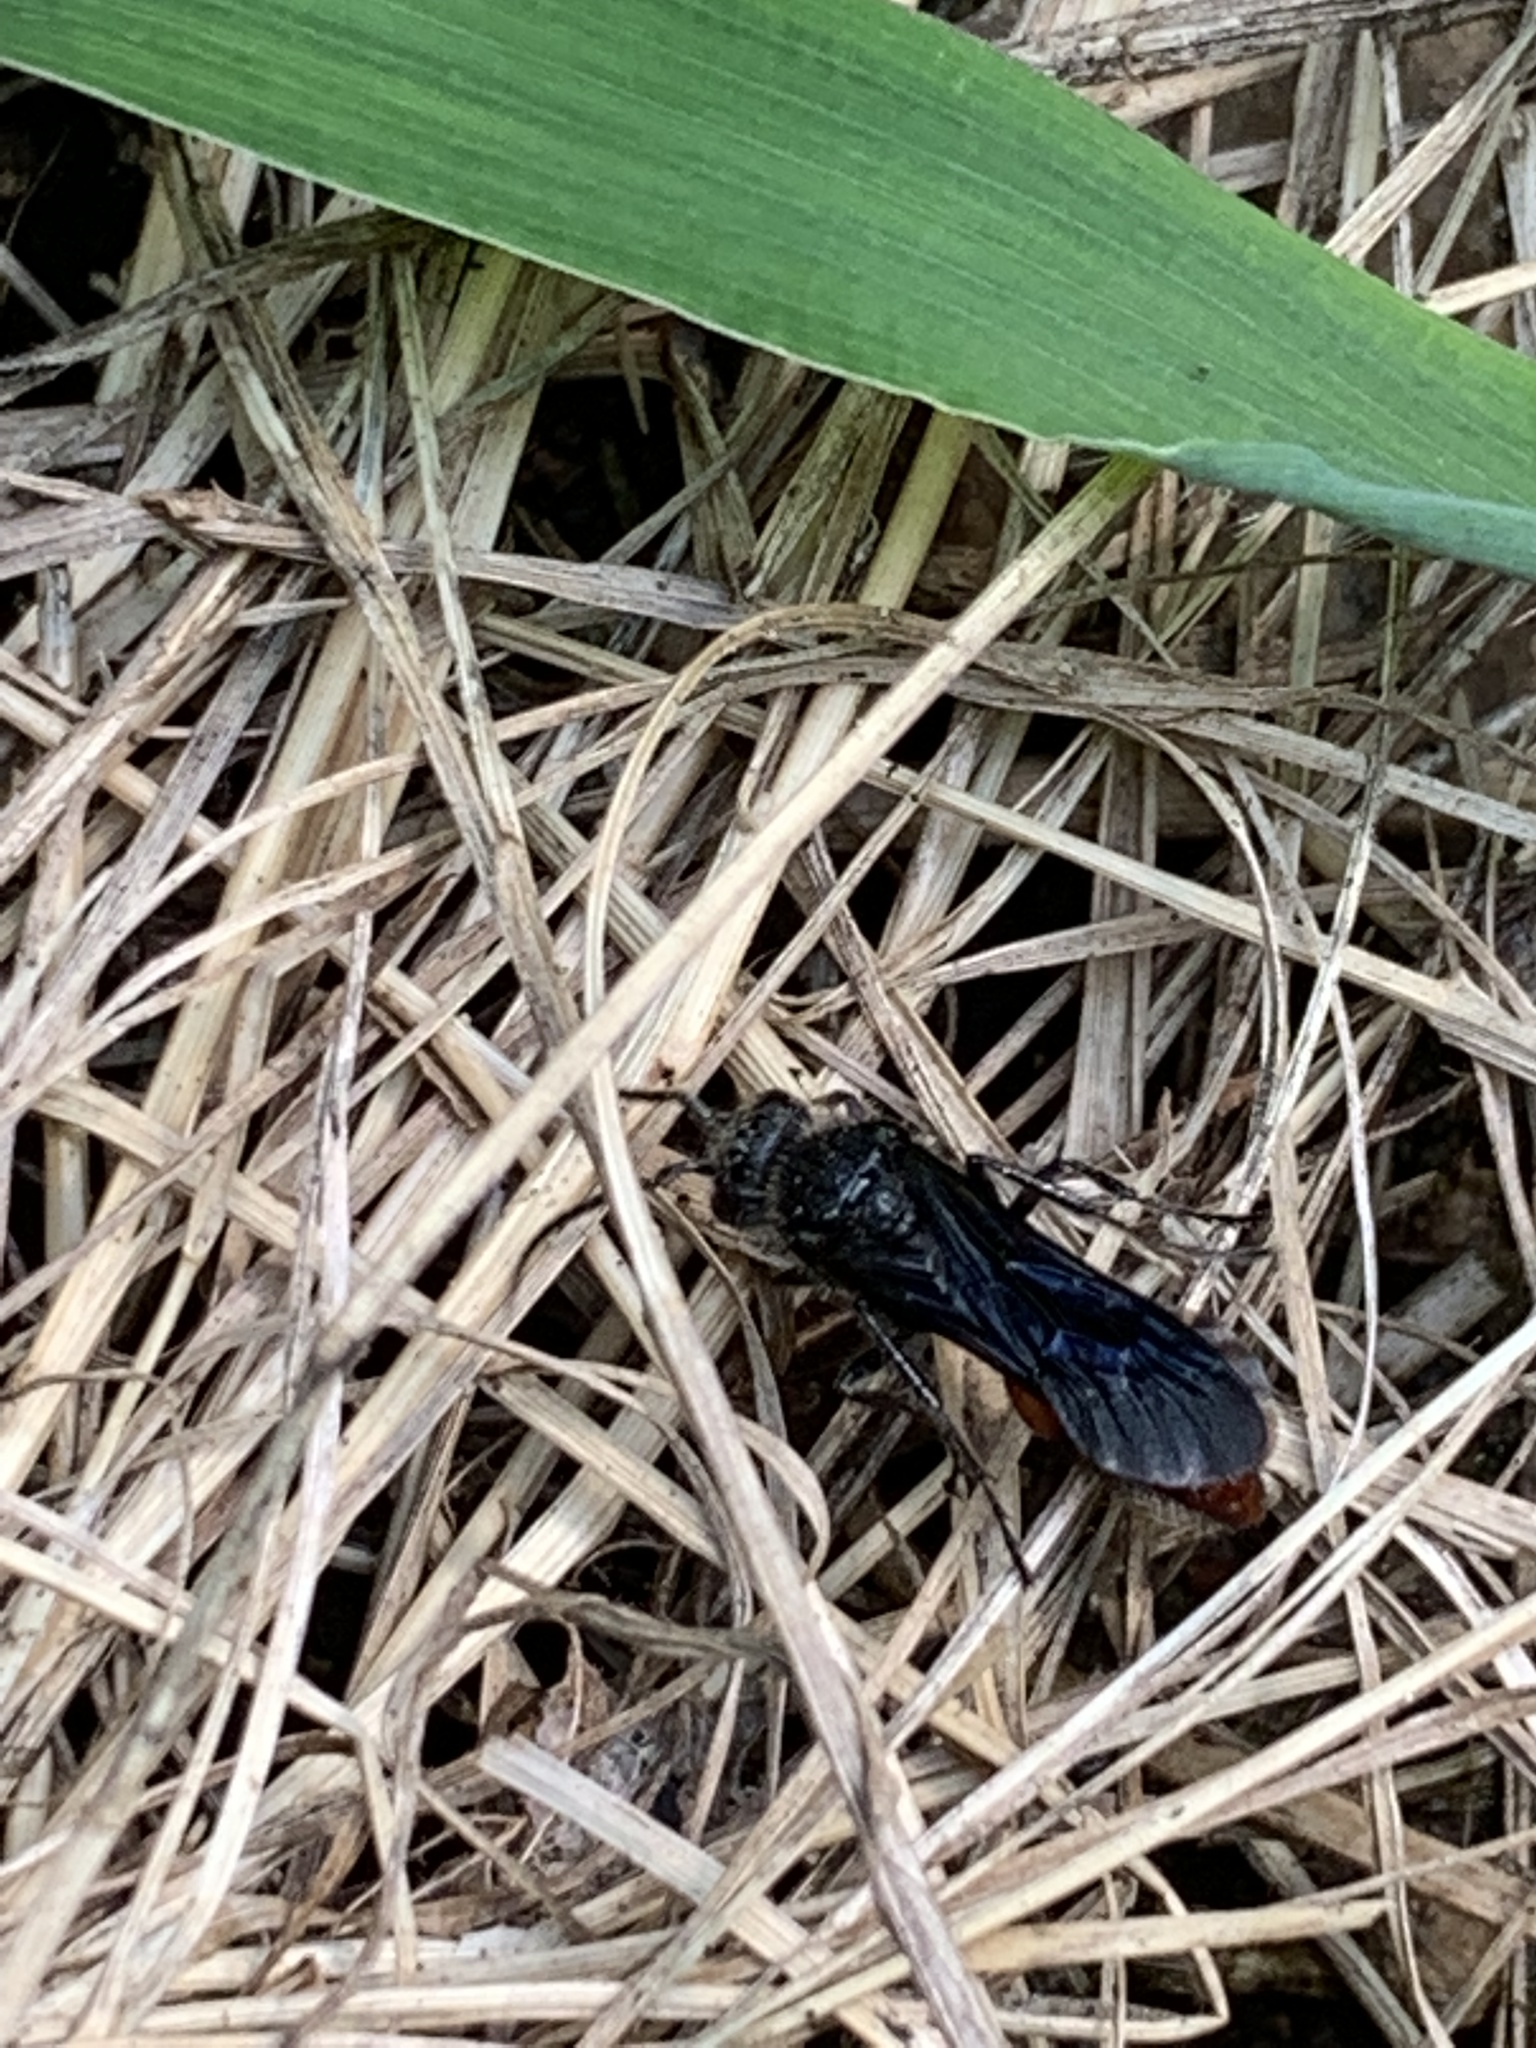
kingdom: Animalia
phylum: Arthropoda
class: Insecta
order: Hymenoptera
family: Mutillidae
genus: Timulla
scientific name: Timulla
